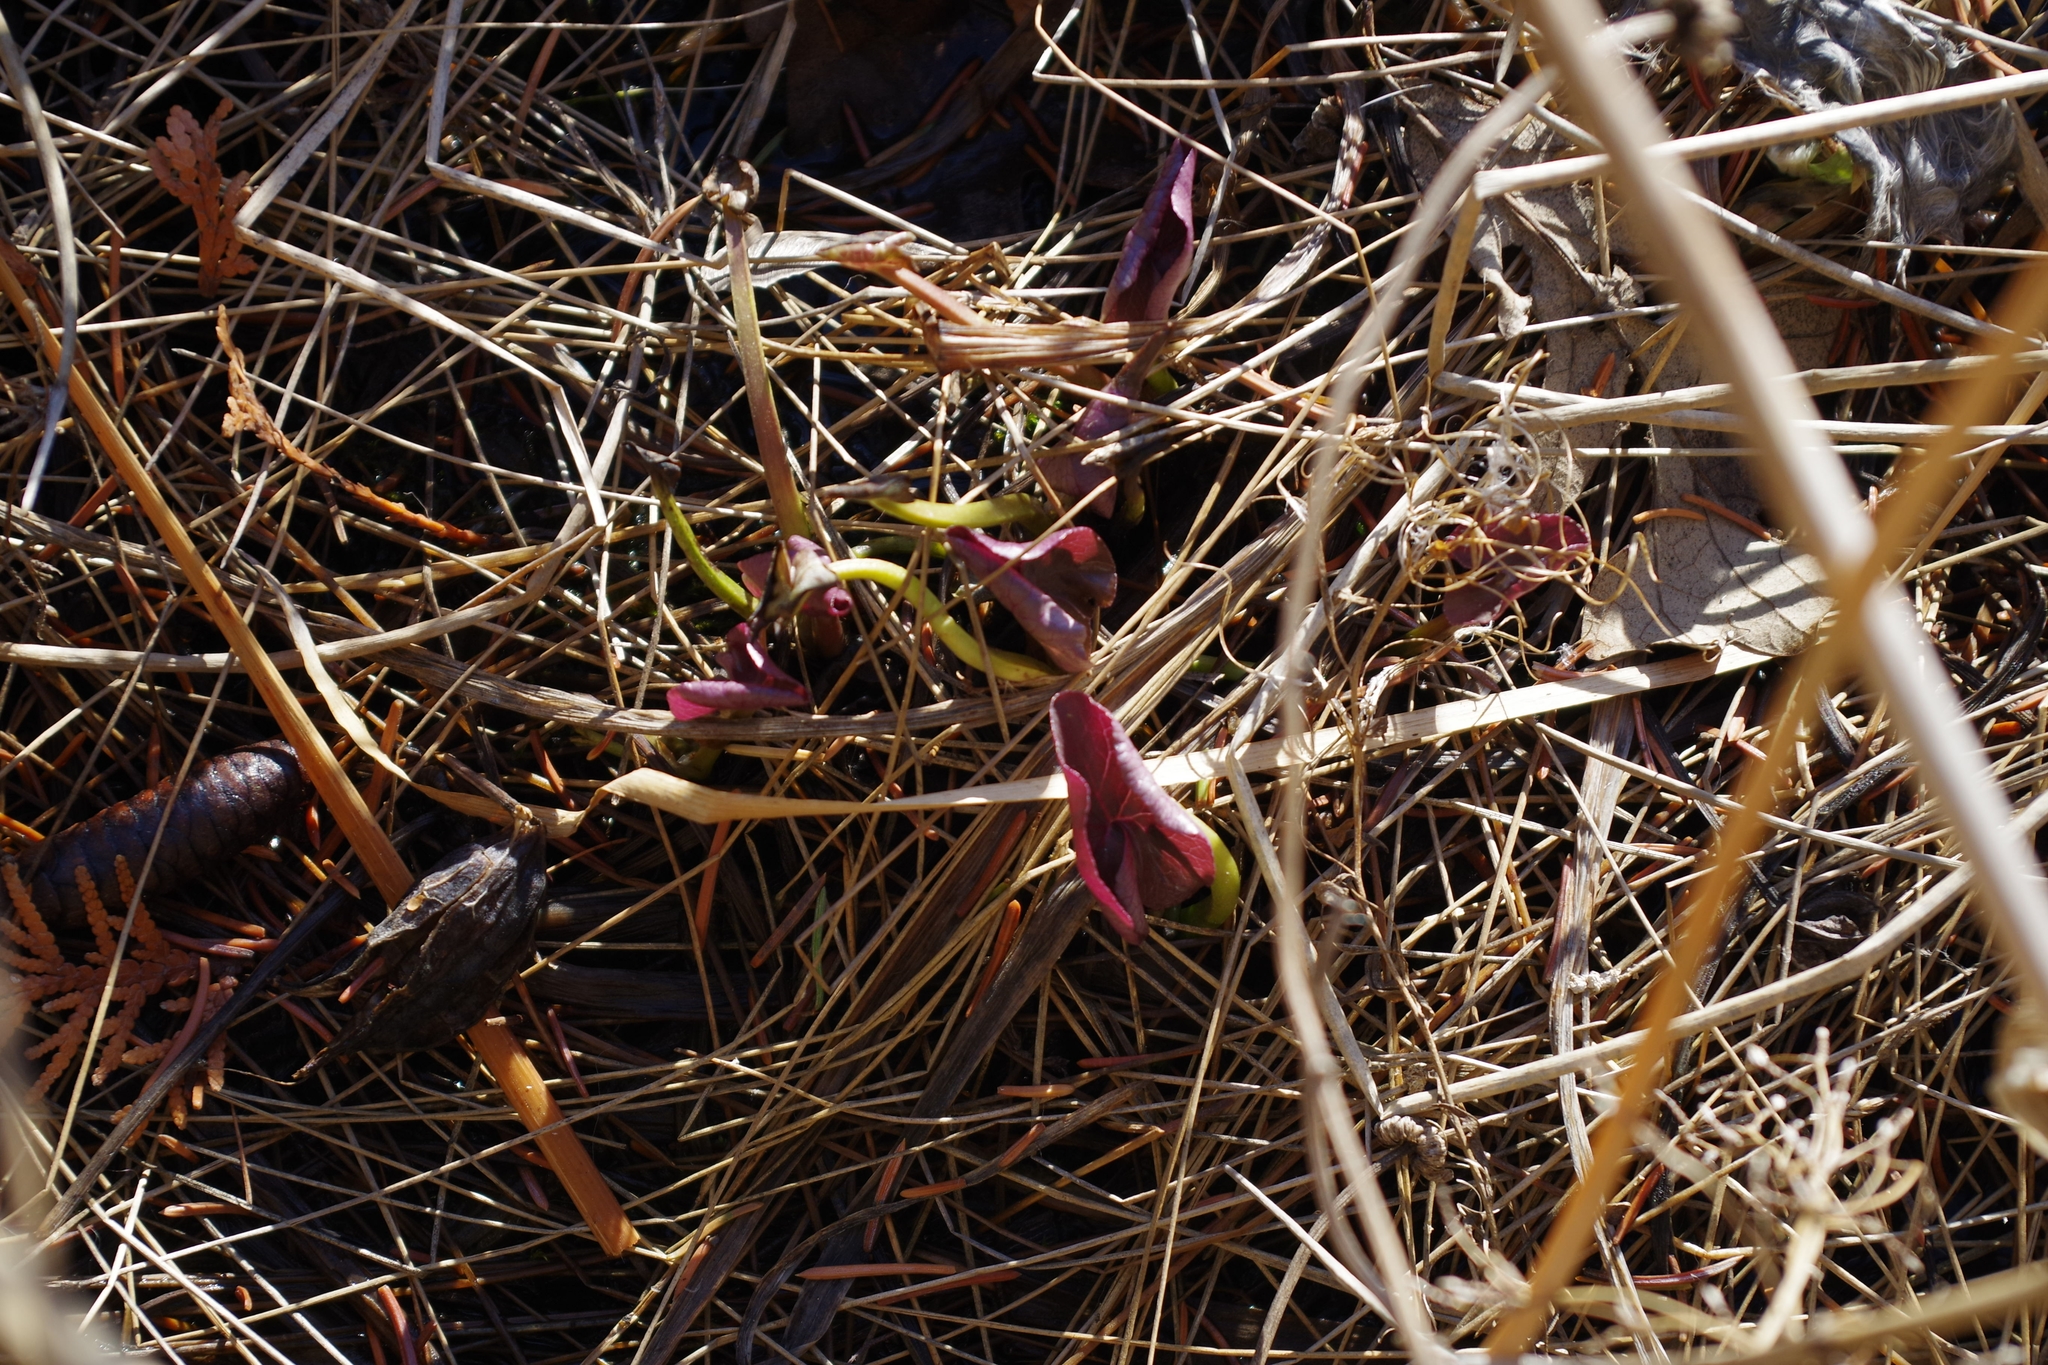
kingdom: Plantae
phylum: Tracheophyta
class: Magnoliopsida
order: Ranunculales
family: Ranunculaceae
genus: Caltha
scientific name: Caltha palustris
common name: Marsh marigold
